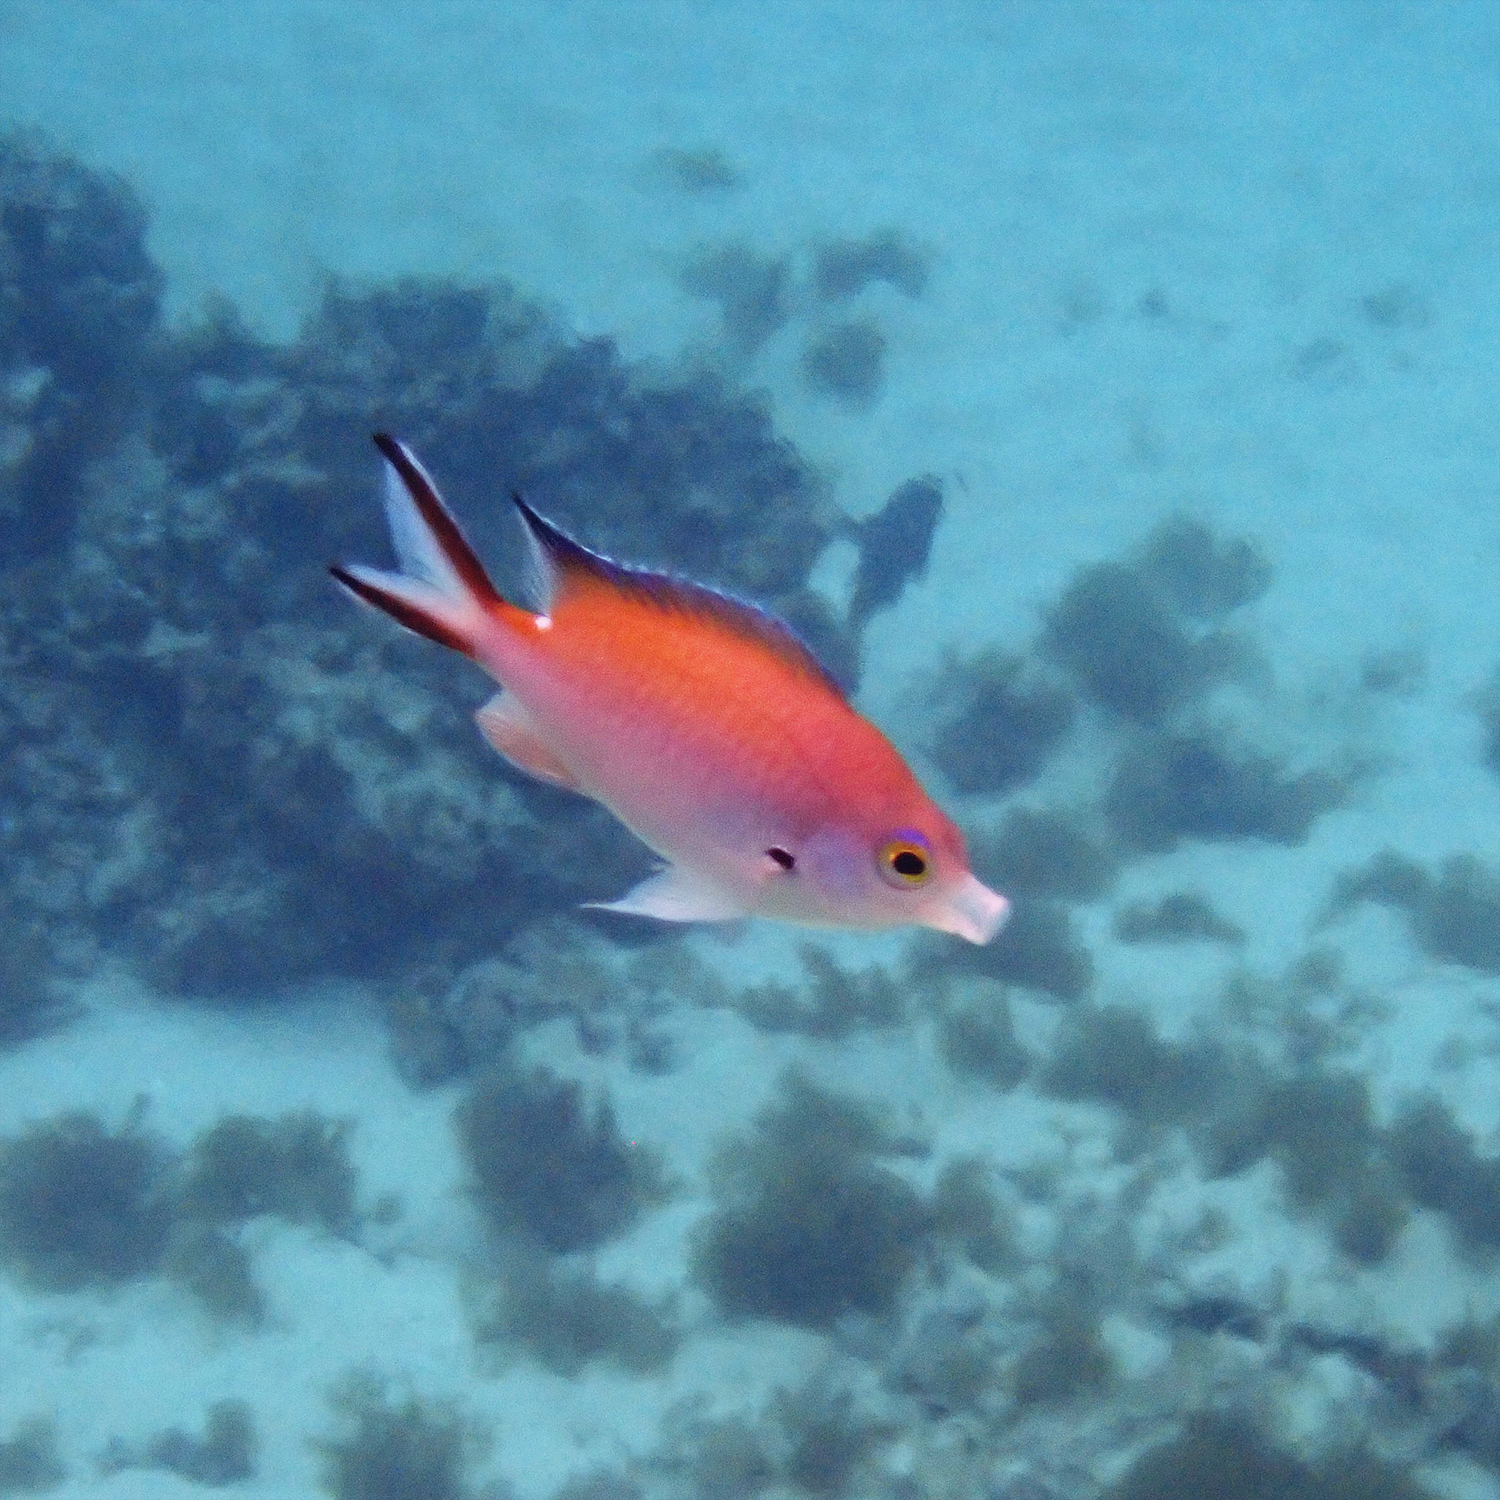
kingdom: Animalia
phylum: Chordata
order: Perciformes
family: Pomacentridae
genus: Chromis
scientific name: Chromis norfolkensis
